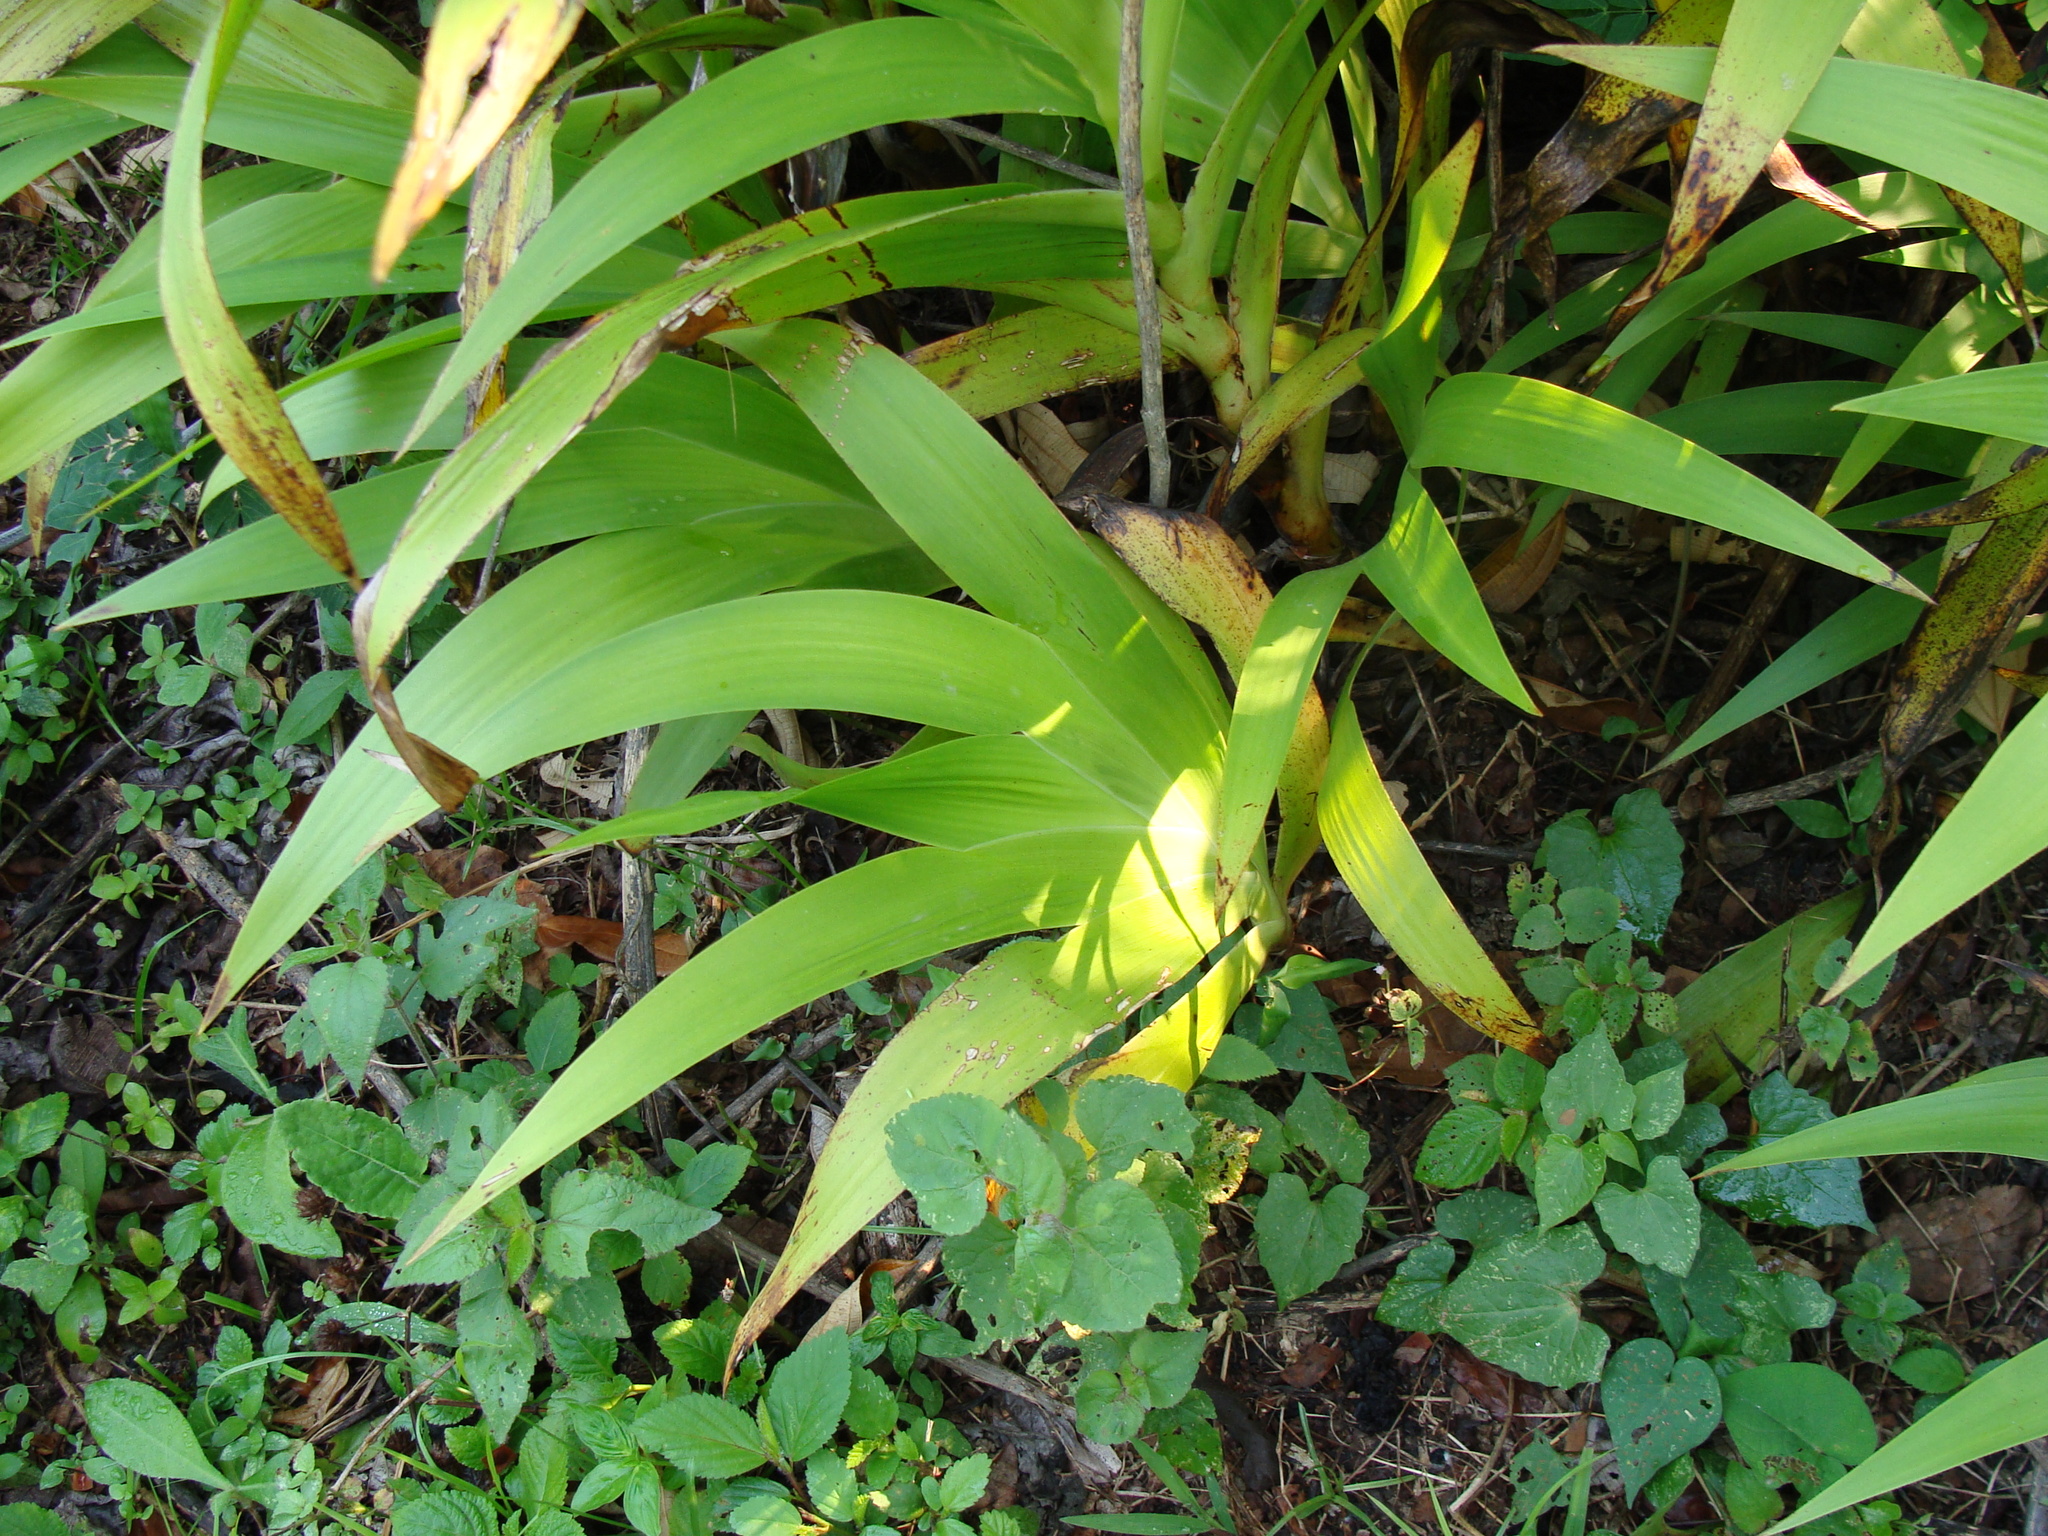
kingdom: Plantae
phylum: Tracheophyta
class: Liliopsida
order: Commelinales
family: Haemodoraceae
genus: Xiphidium
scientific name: Xiphidium caeruleum
